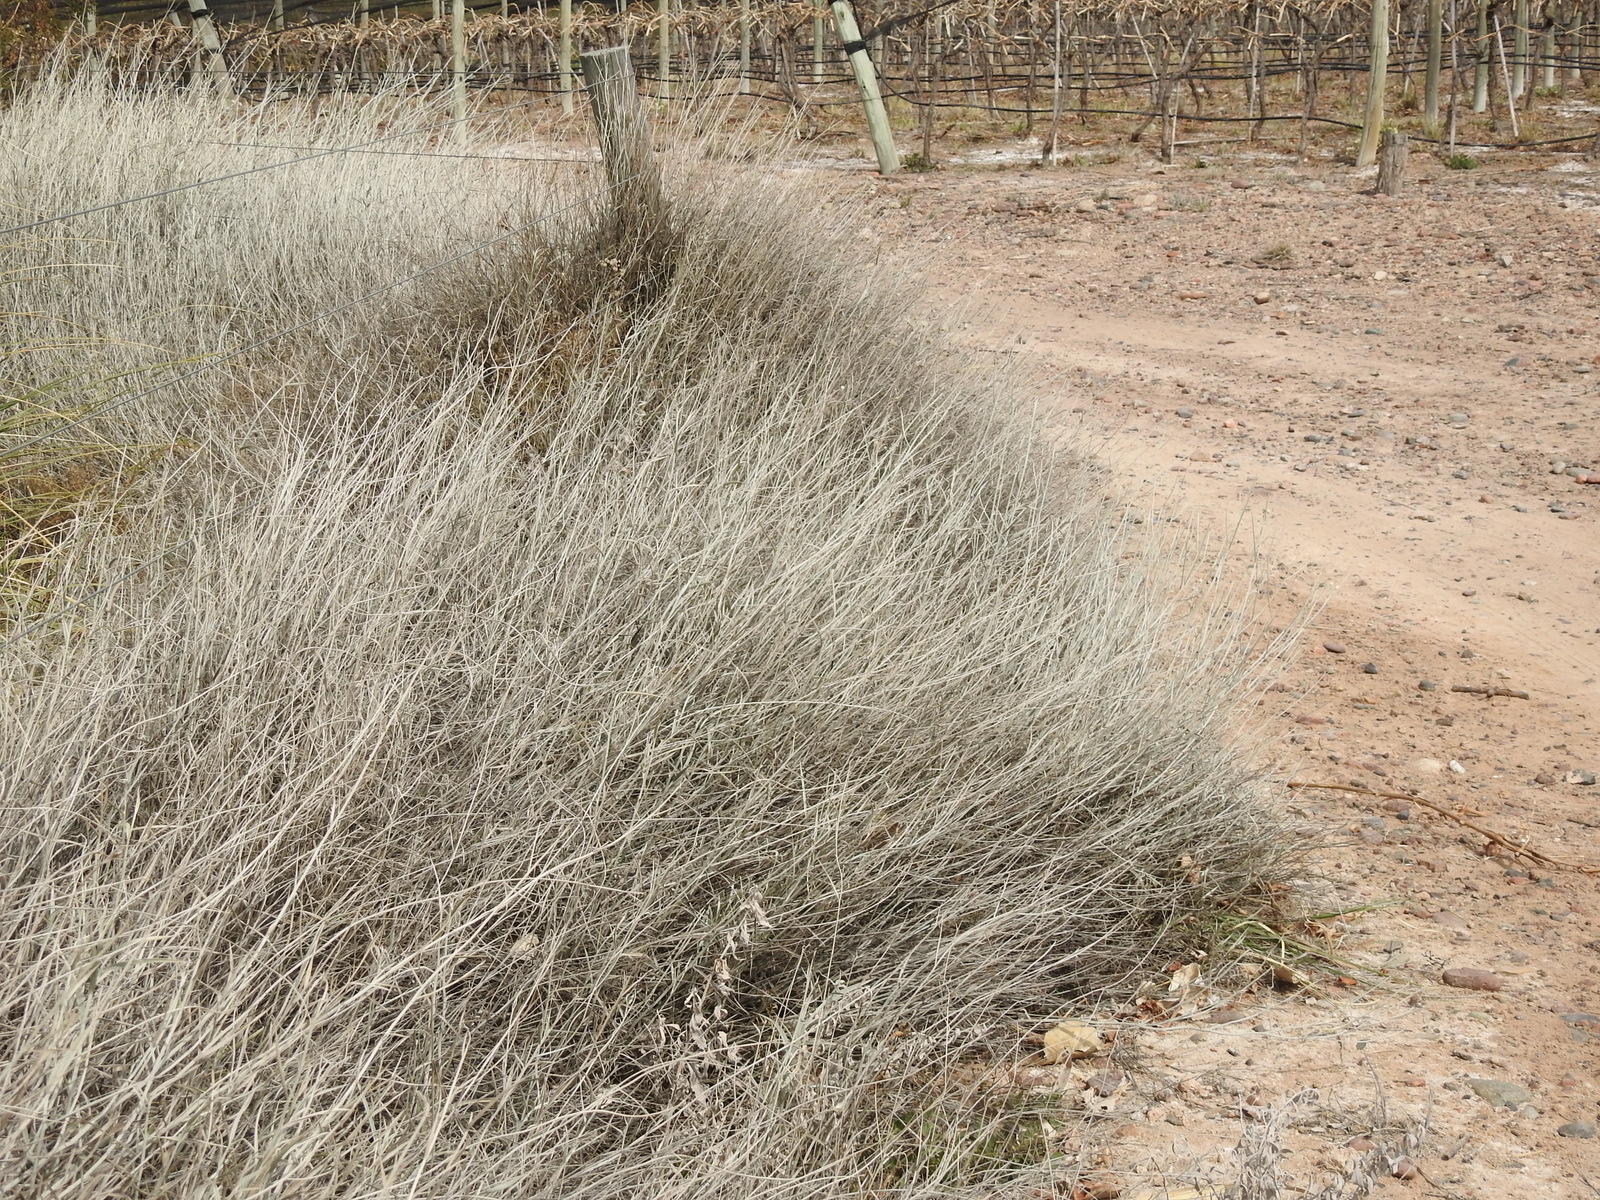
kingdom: Plantae
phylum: Tracheophyta
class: Magnoliopsida
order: Asterales
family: Asteraceae
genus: Hyalis
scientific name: Hyalis argentea
